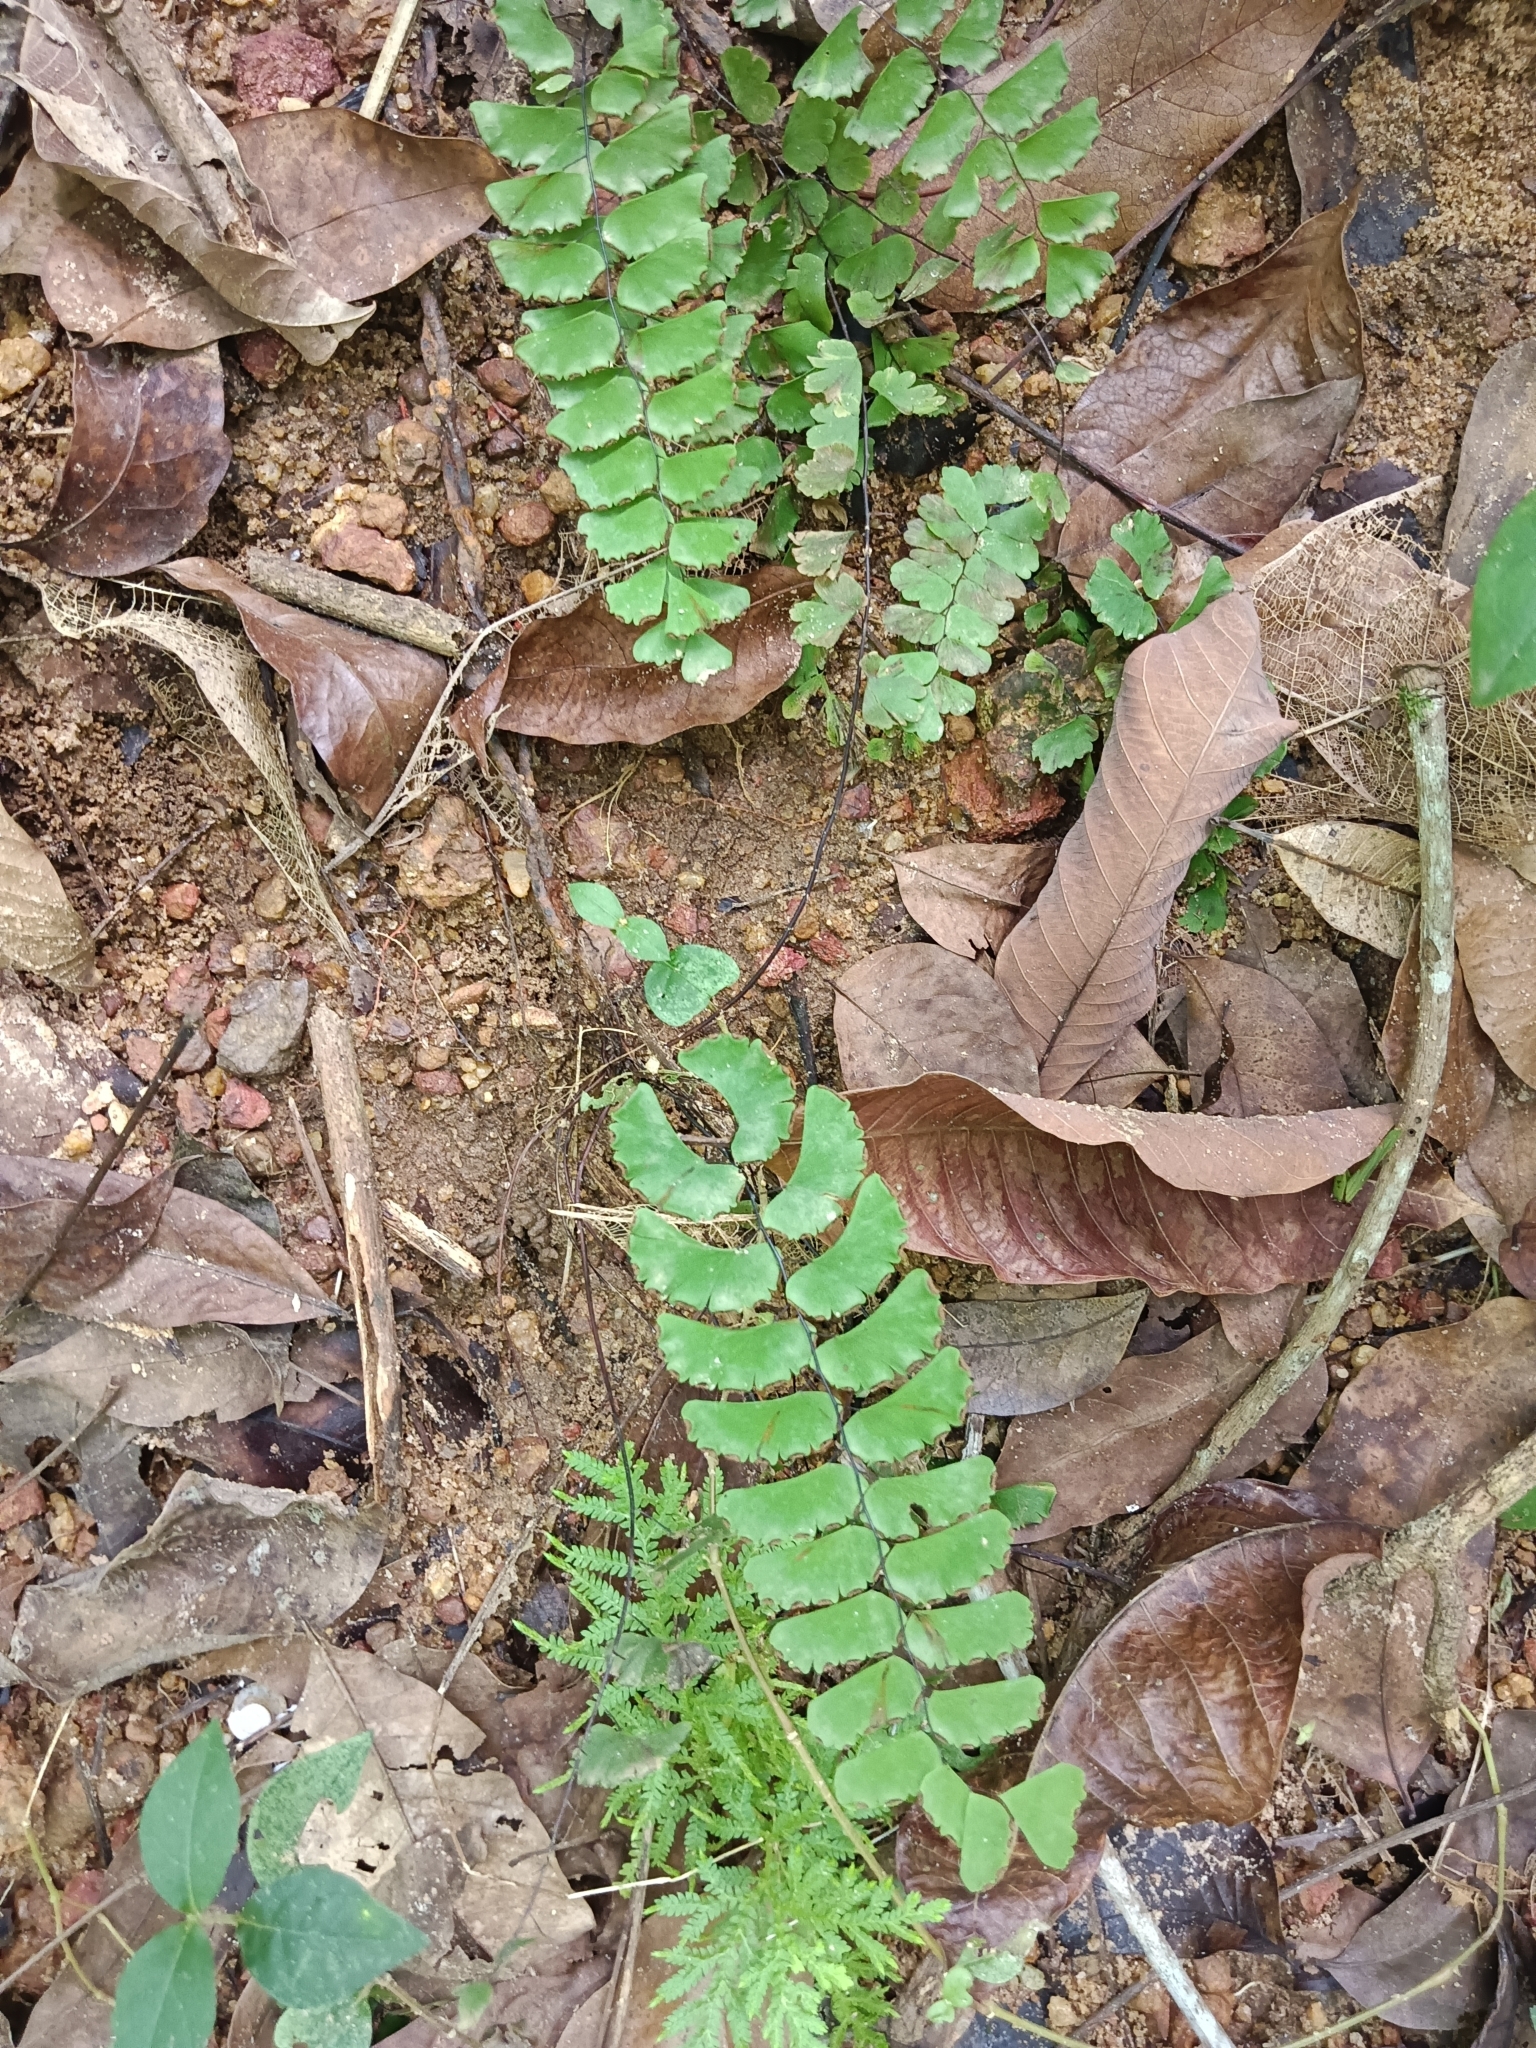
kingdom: Plantae
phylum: Tracheophyta
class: Polypodiopsida
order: Polypodiales
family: Pteridaceae
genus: Adiantum
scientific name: Adiantum philippense
